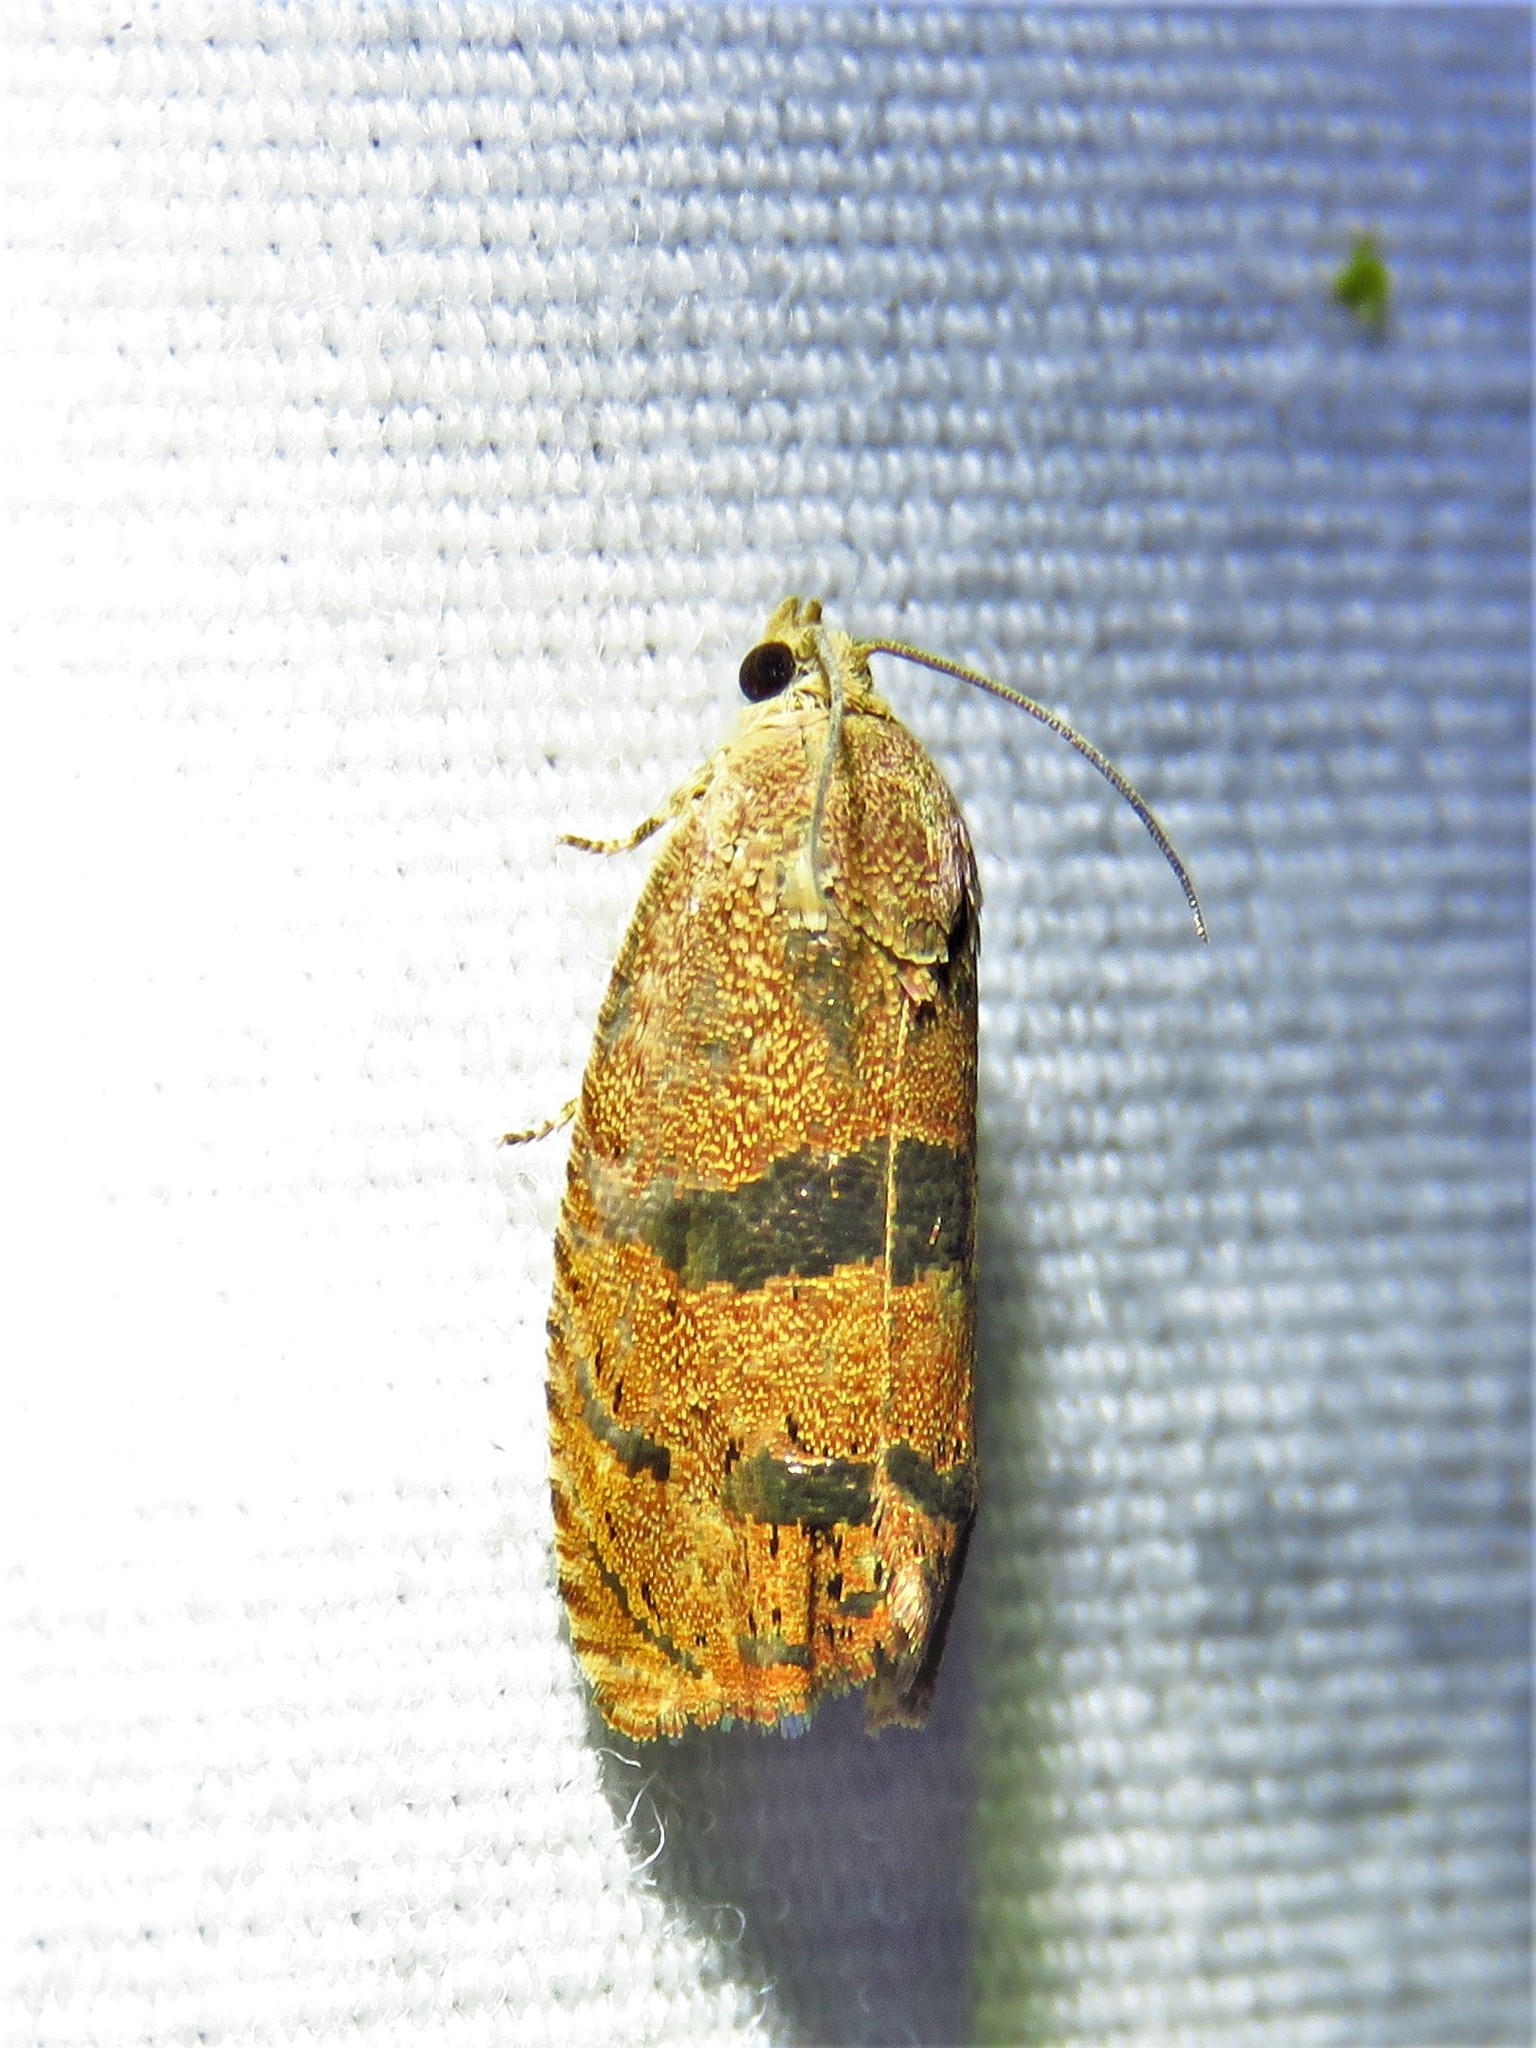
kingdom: Animalia
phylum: Arthropoda
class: Insecta
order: Lepidoptera
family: Tortricidae
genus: Cydia
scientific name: Cydia latiferreana
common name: Filbertworm moth
